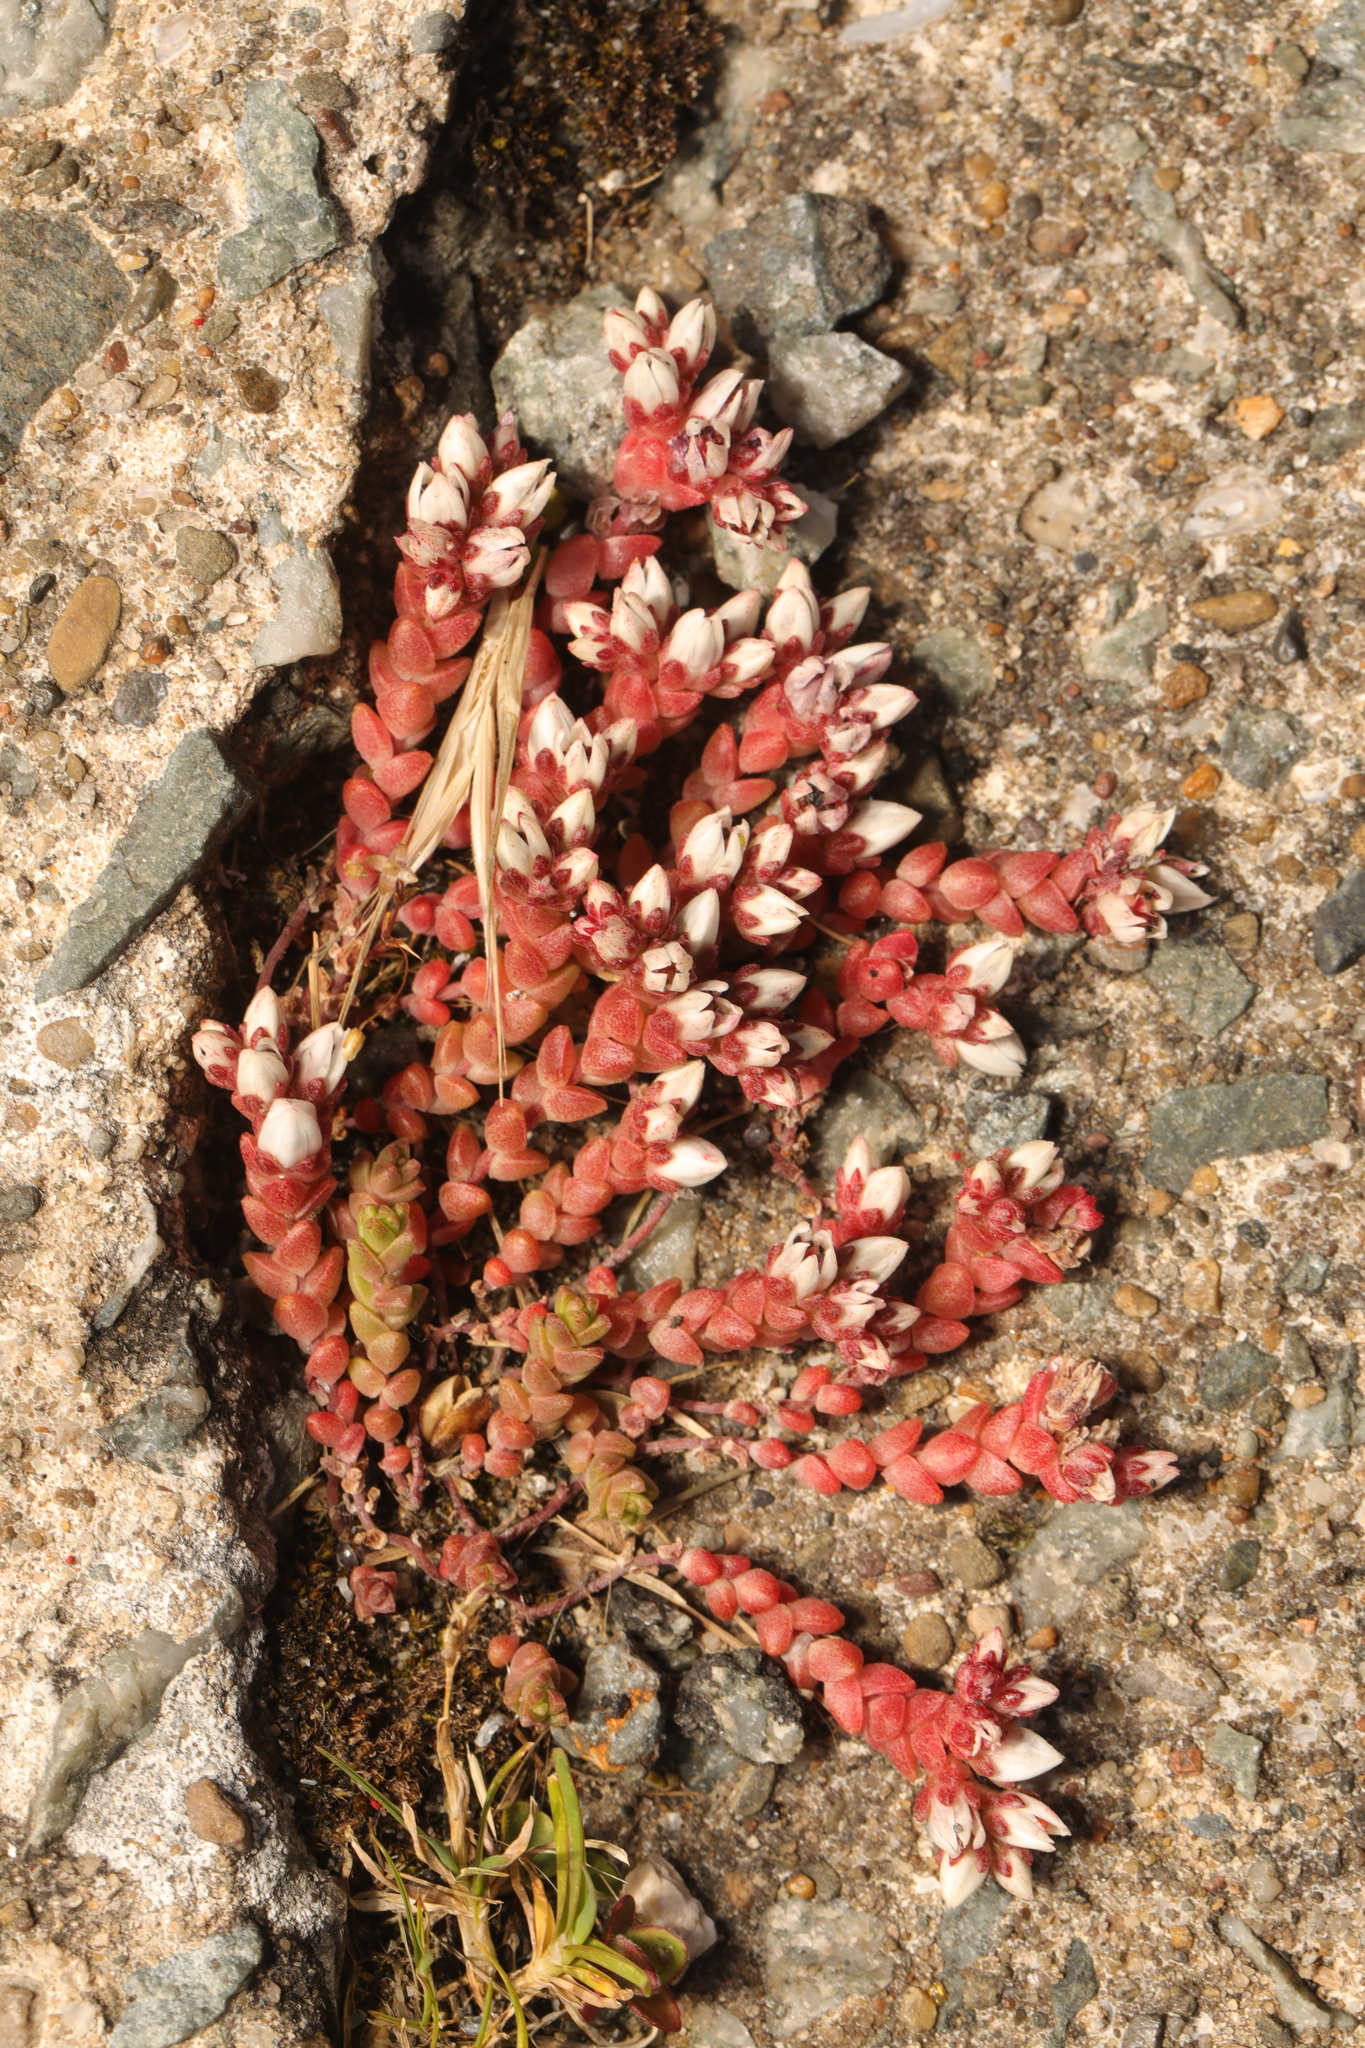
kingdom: Plantae
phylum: Tracheophyta
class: Magnoliopsida
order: Saxifragales
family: Crassulaceae
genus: Sedum
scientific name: Sedum anglicum
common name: English stonecrop
